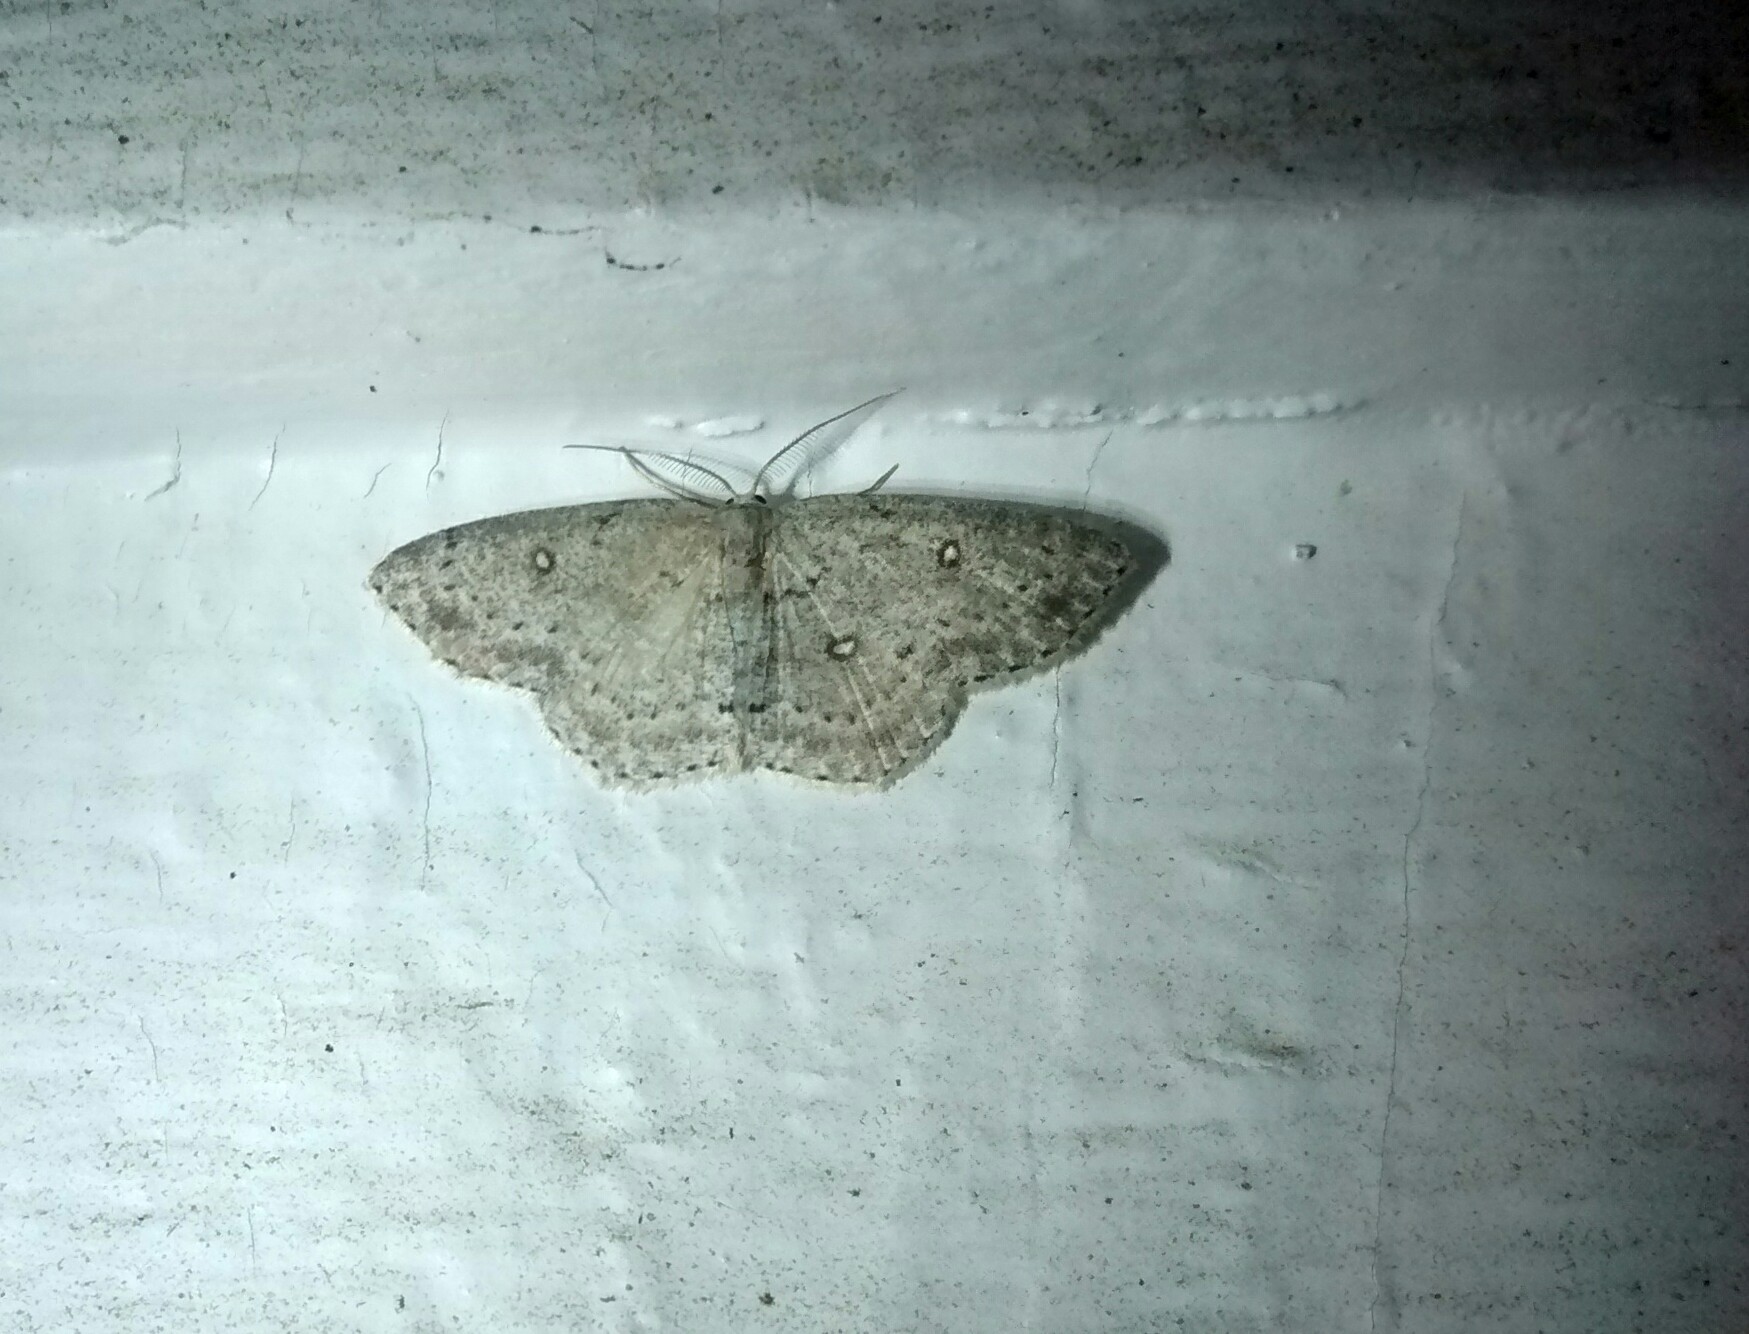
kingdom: Animalia
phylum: Arthropoda
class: Insecta
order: Lepidoptera
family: Geometridae
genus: Cyclophora
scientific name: Cyclophora pendulinaria
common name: Sweet fern geometer
